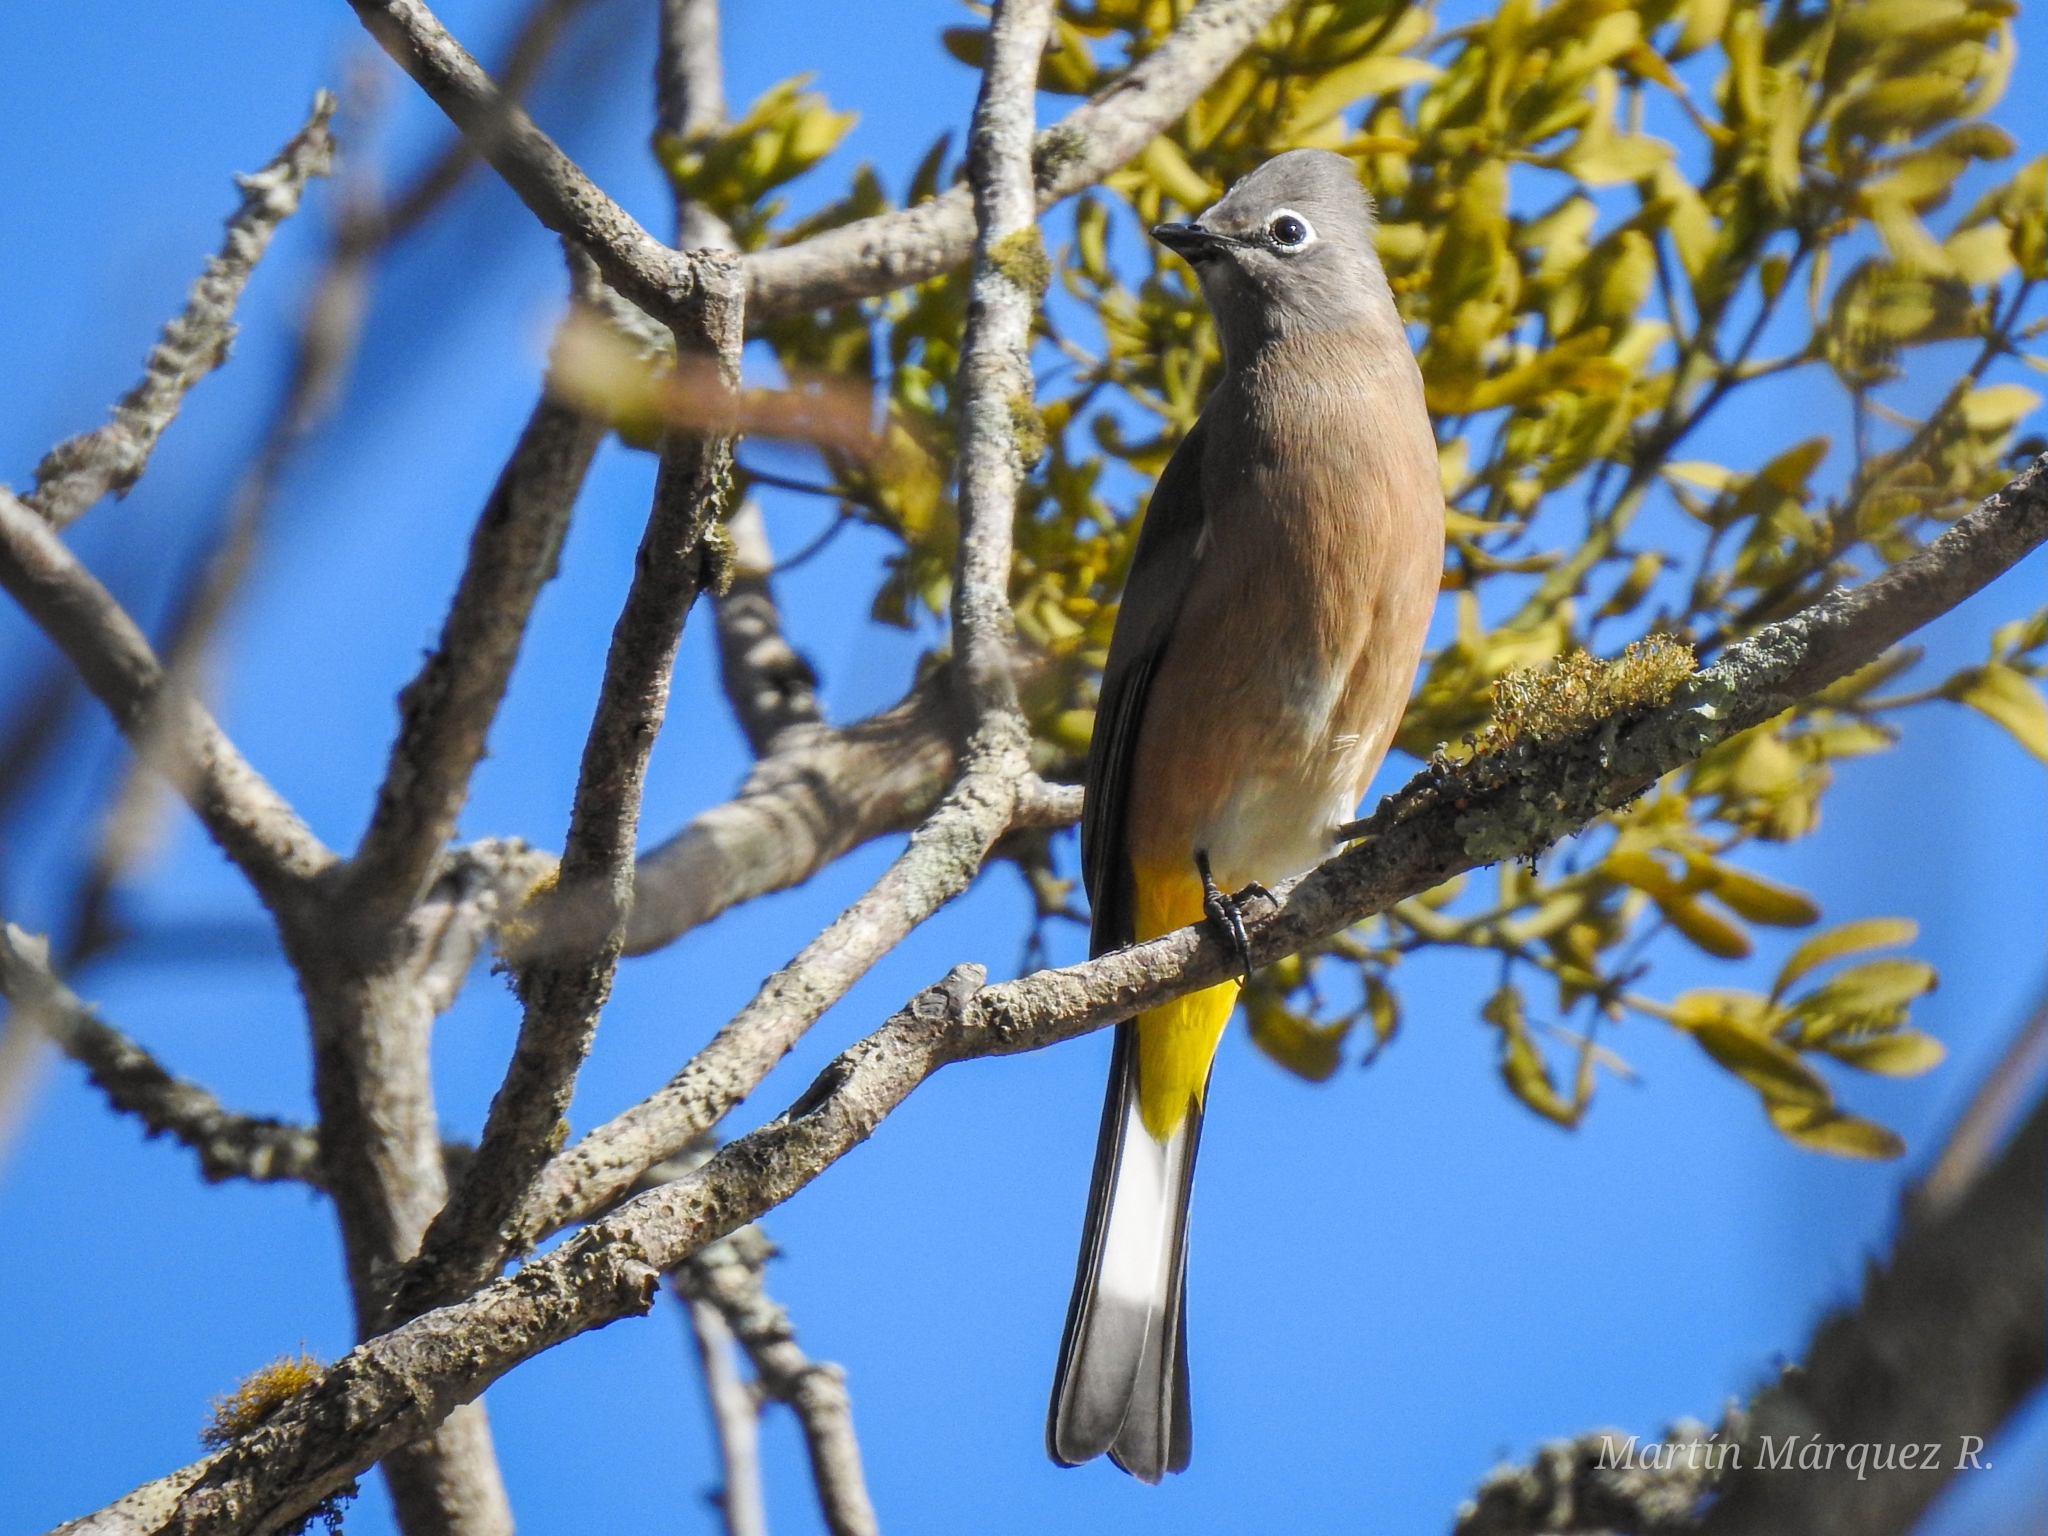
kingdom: Animalia
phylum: Chordata
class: Aves
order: Passeriformes
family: Ptilogonatidae
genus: Ptilogonys
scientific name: Ptilogonys cinereus
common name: Gray silky-flycatcher
